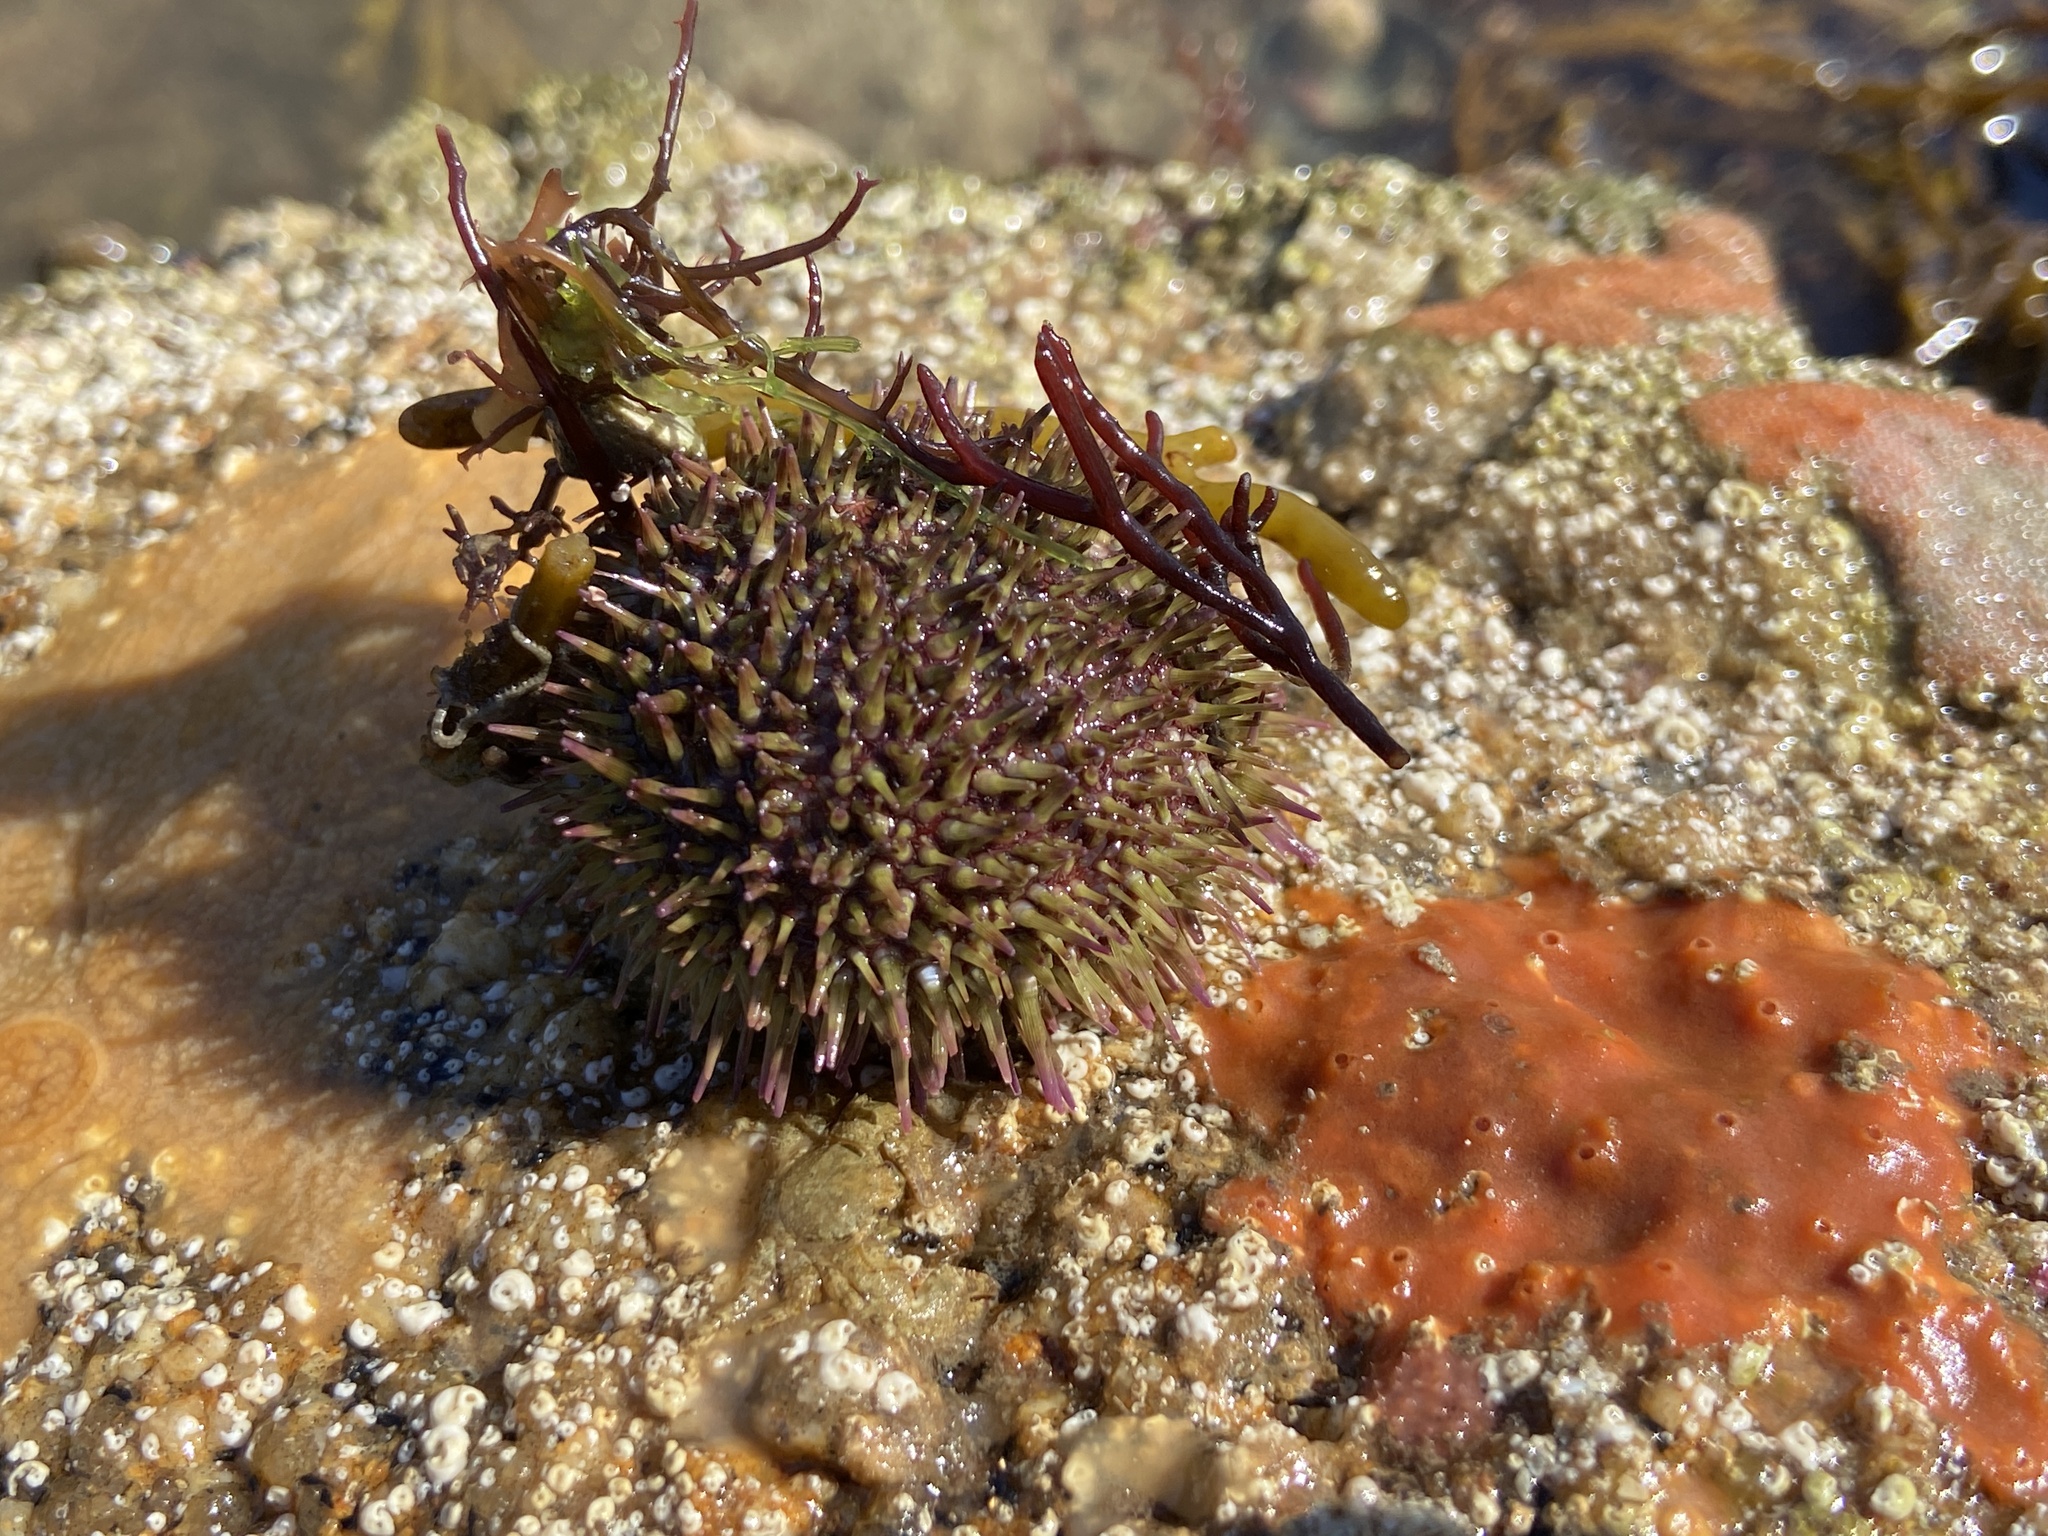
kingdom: Animalia
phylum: Echinodermata
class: Echinoidea
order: Camarodonta
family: Parechinidae
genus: Psammechinus
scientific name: Psammechinus miliaris
